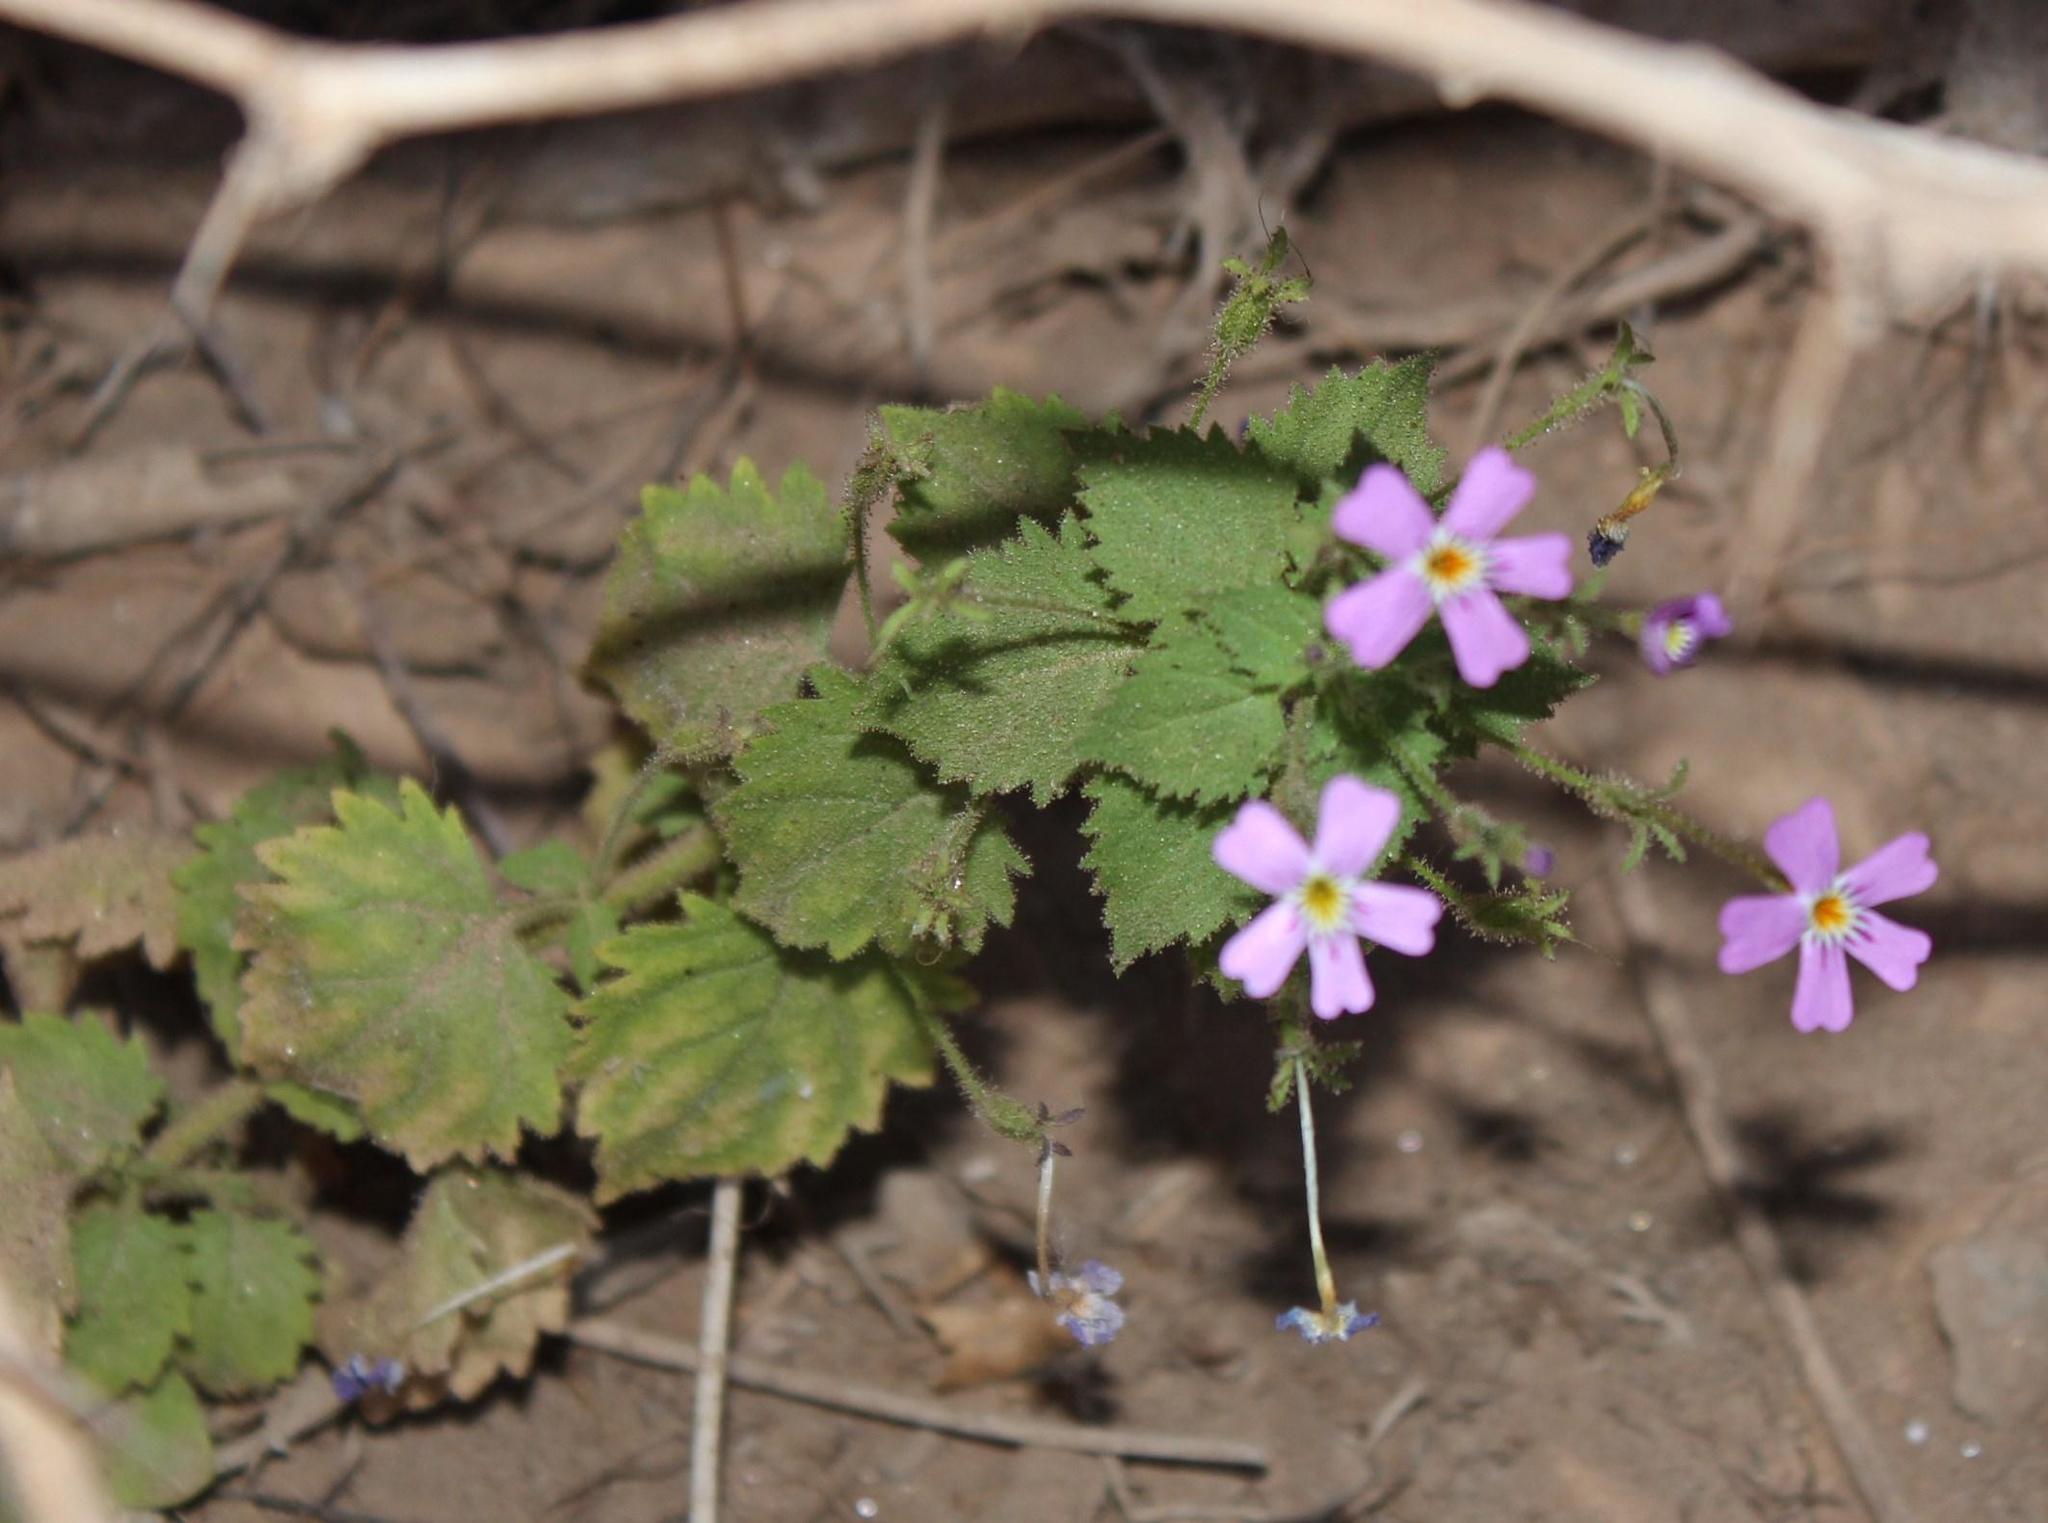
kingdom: Plantae
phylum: Tracheophyta
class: Magnoliopsida
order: Lamiales
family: Scrophulariaceae
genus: Jamesbrittenia
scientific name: Jamesbrittenia glutinosa
